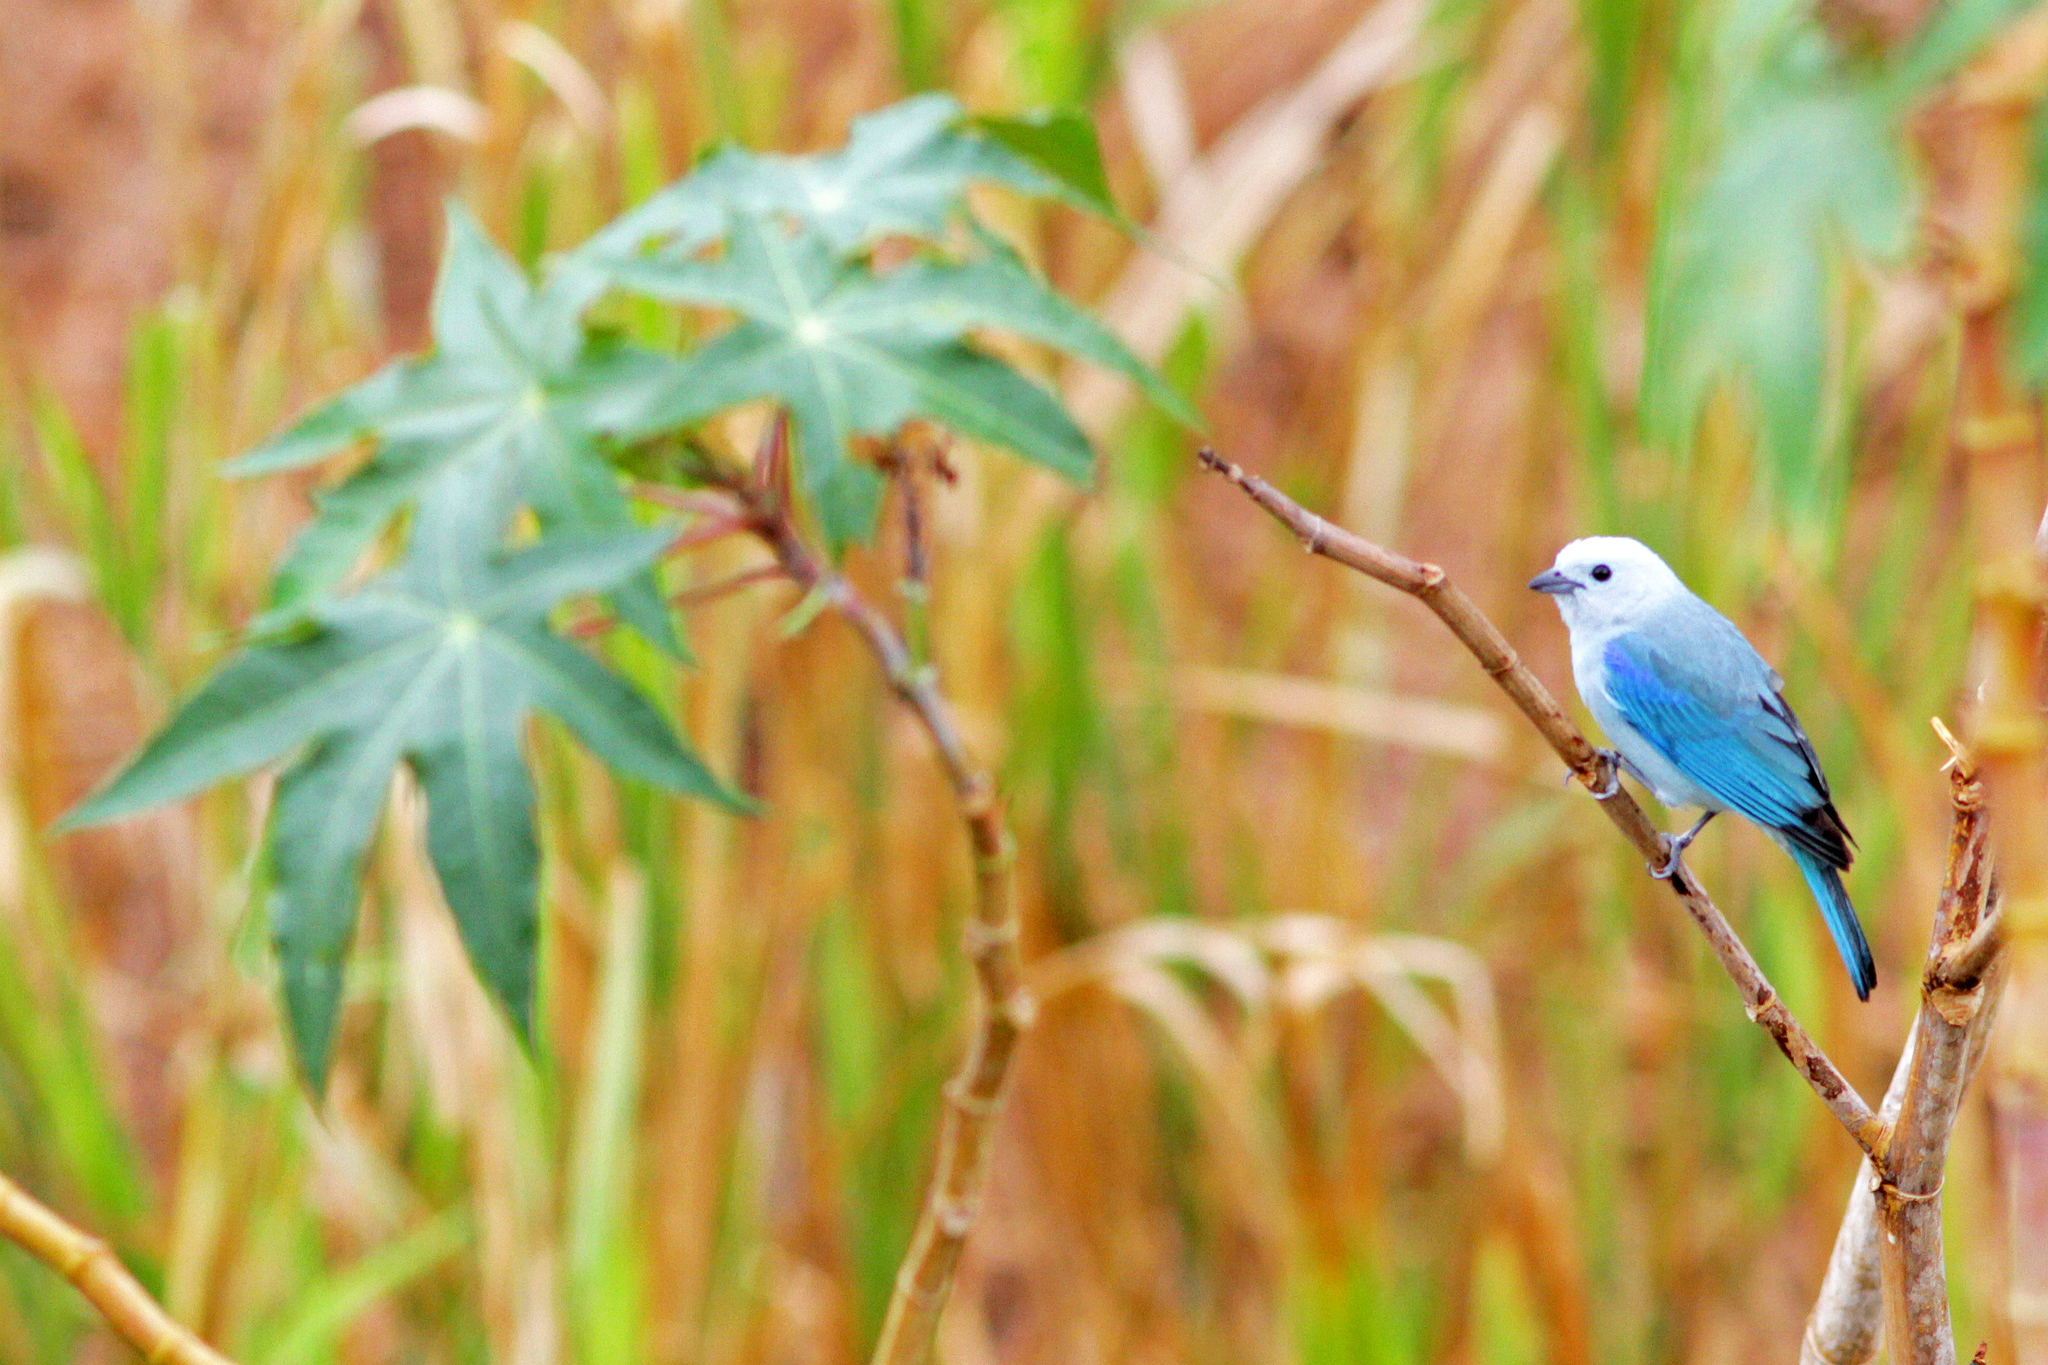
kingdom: Animalia
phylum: Chordata
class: Aves
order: Passeriformes
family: Thraupidae
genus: Thraupis
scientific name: Thraupis episcopus
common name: Blue-grey tanager
